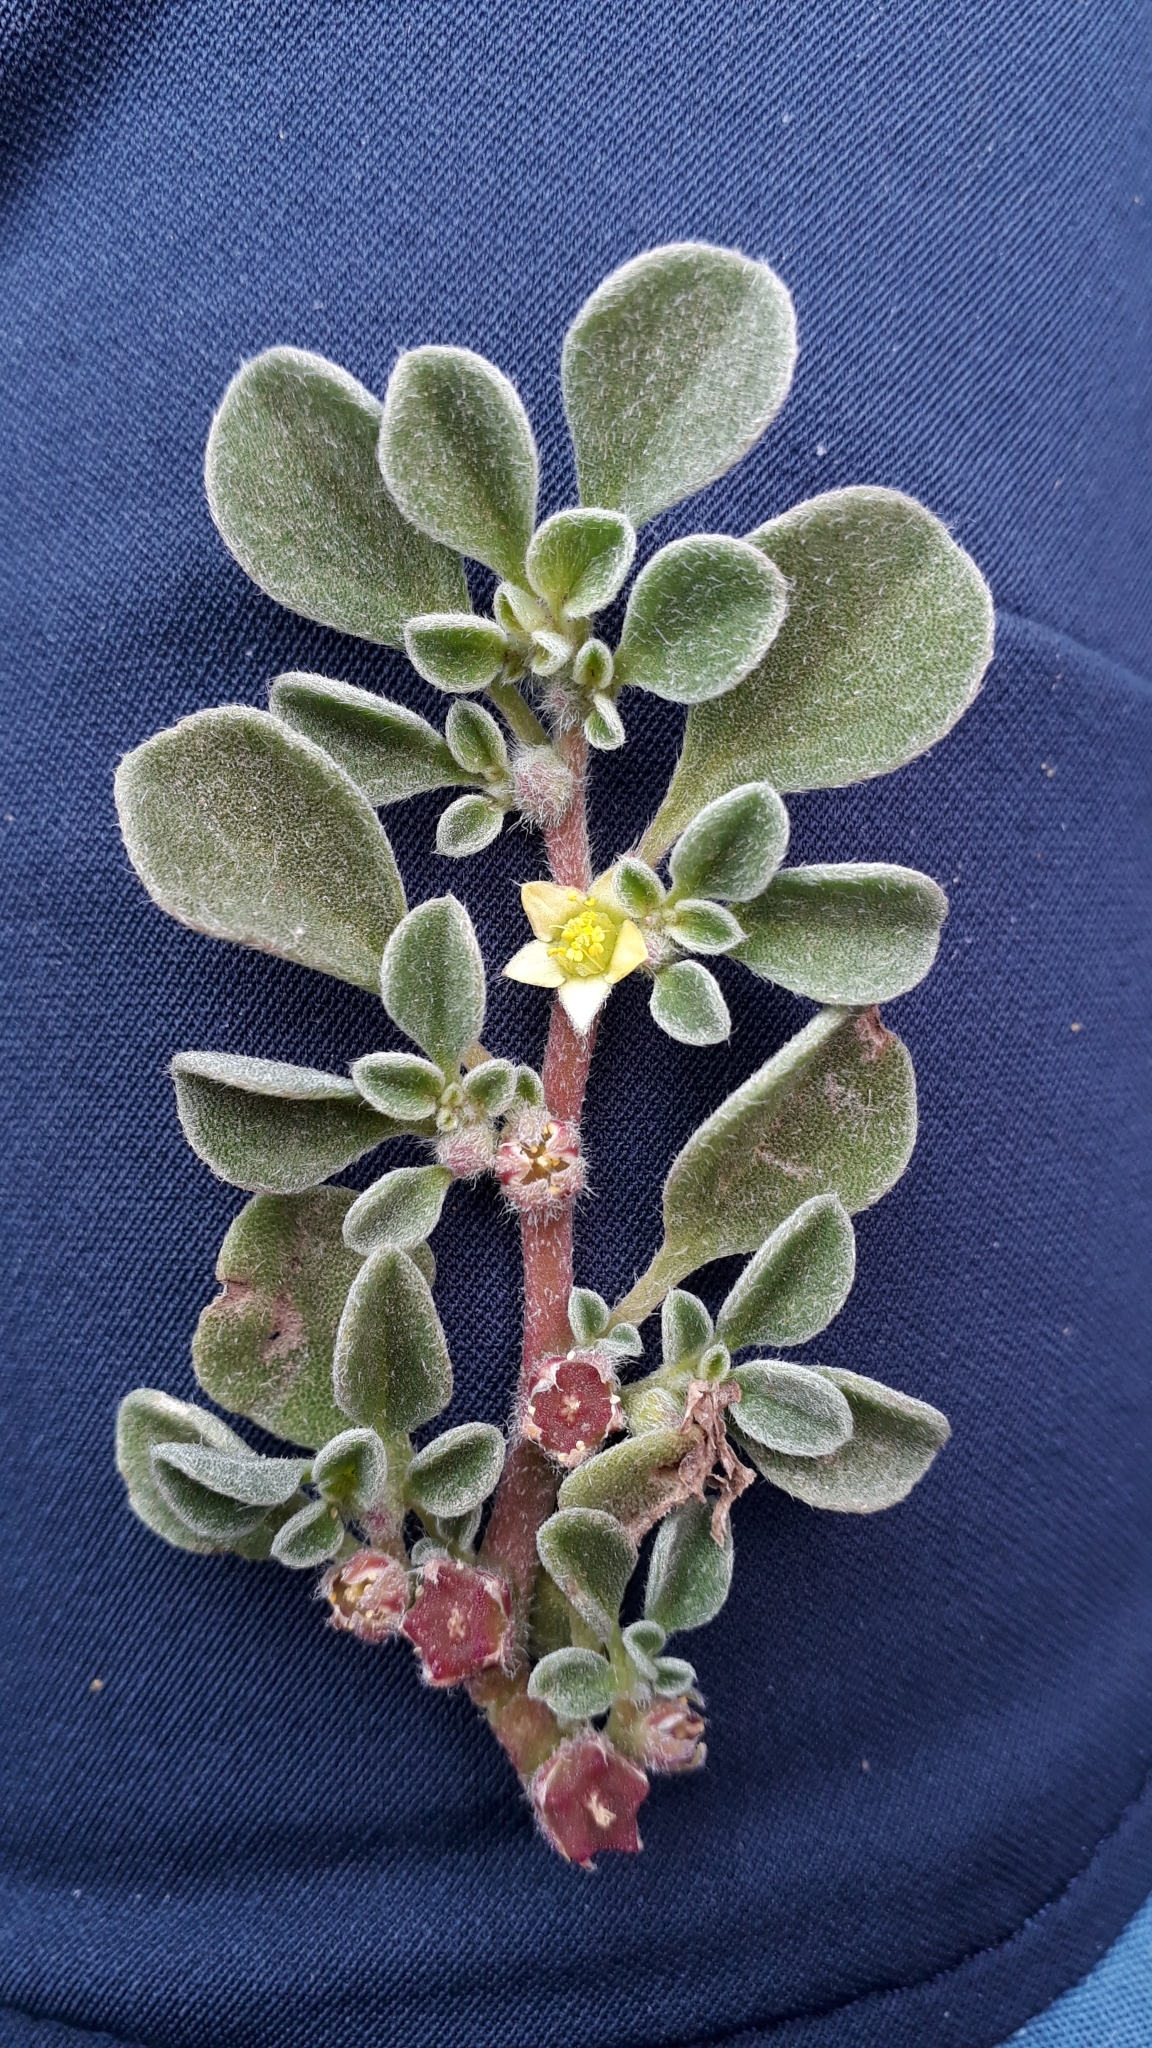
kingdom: Plantae
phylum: Tracheophyta
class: Magnoliopsida
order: Caryophyllales
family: Aizoaceae
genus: Aizoon
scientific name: Aizoon canariense
